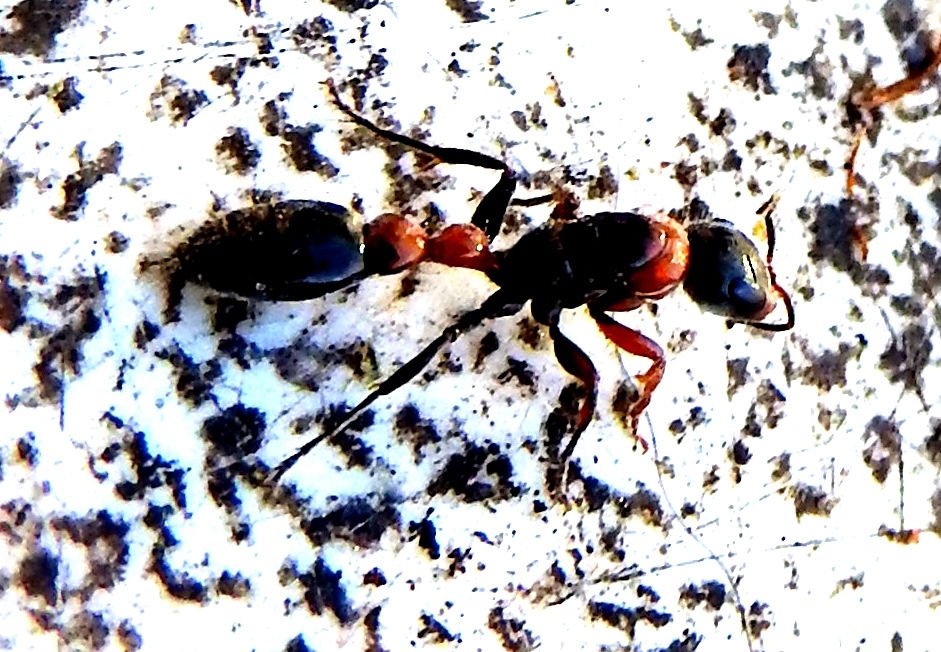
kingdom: Animalia
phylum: Arthropoda
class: Insecta
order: Hymenoptera
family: Formicidae
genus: Pseudomyrmex
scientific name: Pseudomyrmex gracilis
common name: Graceful twig ant
